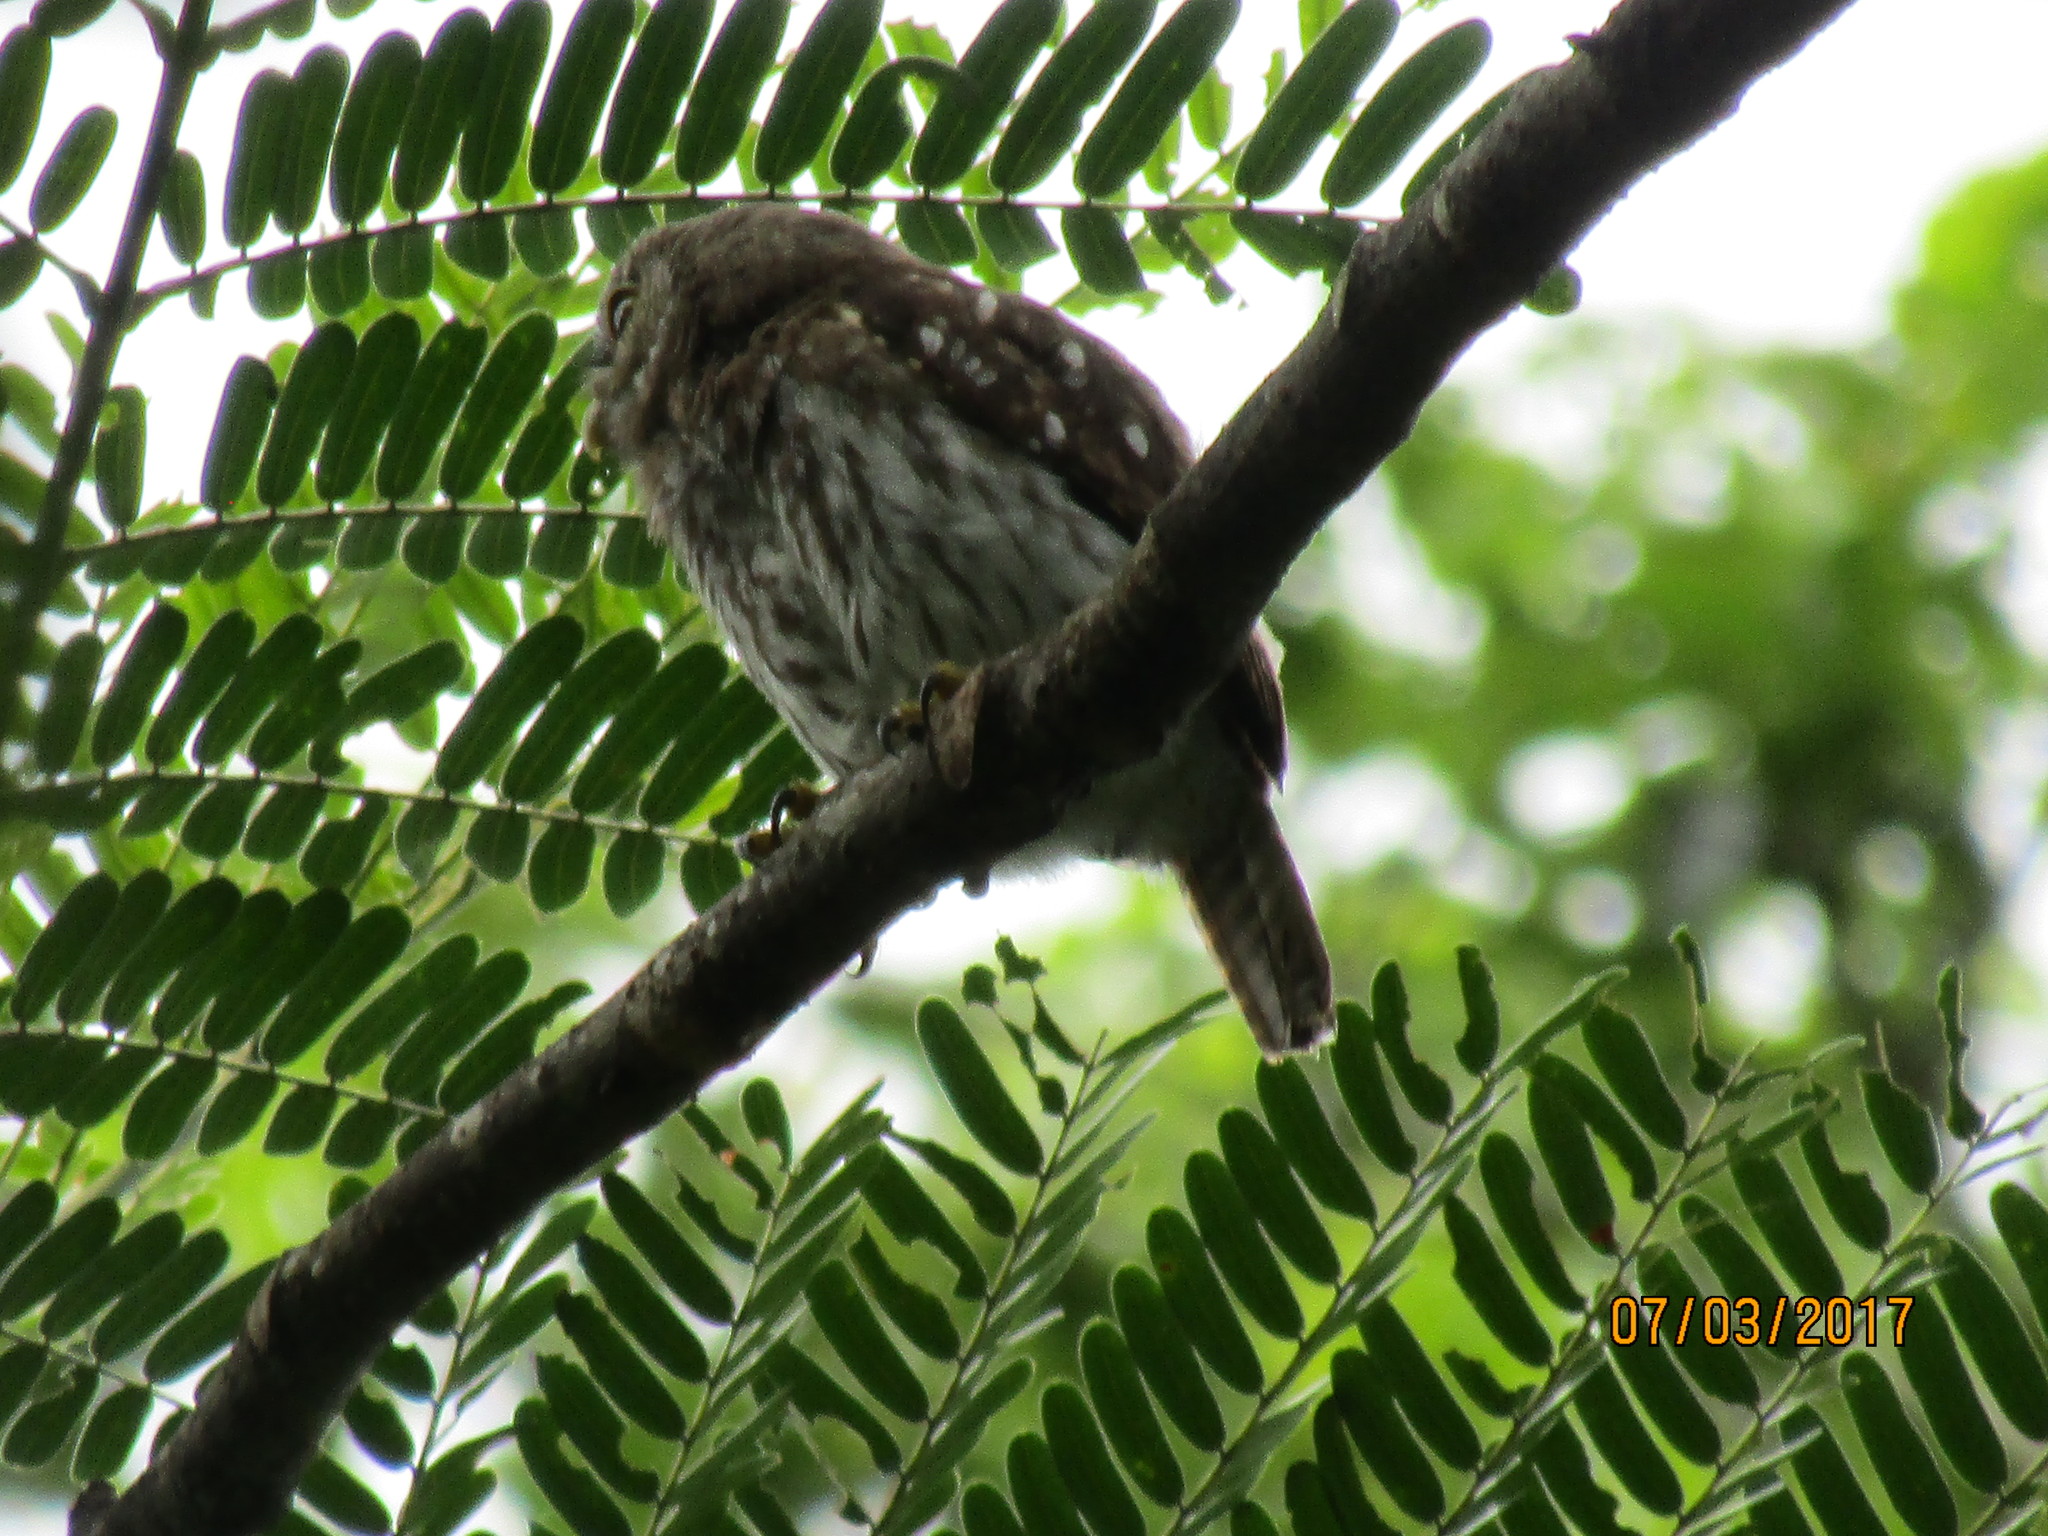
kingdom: Animalia
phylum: Chordata
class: Aves
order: Strigiformes
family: Strigidae
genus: Glaucidium
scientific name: Glaucidium brasilianum
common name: Ferruginous pygmy-owl
